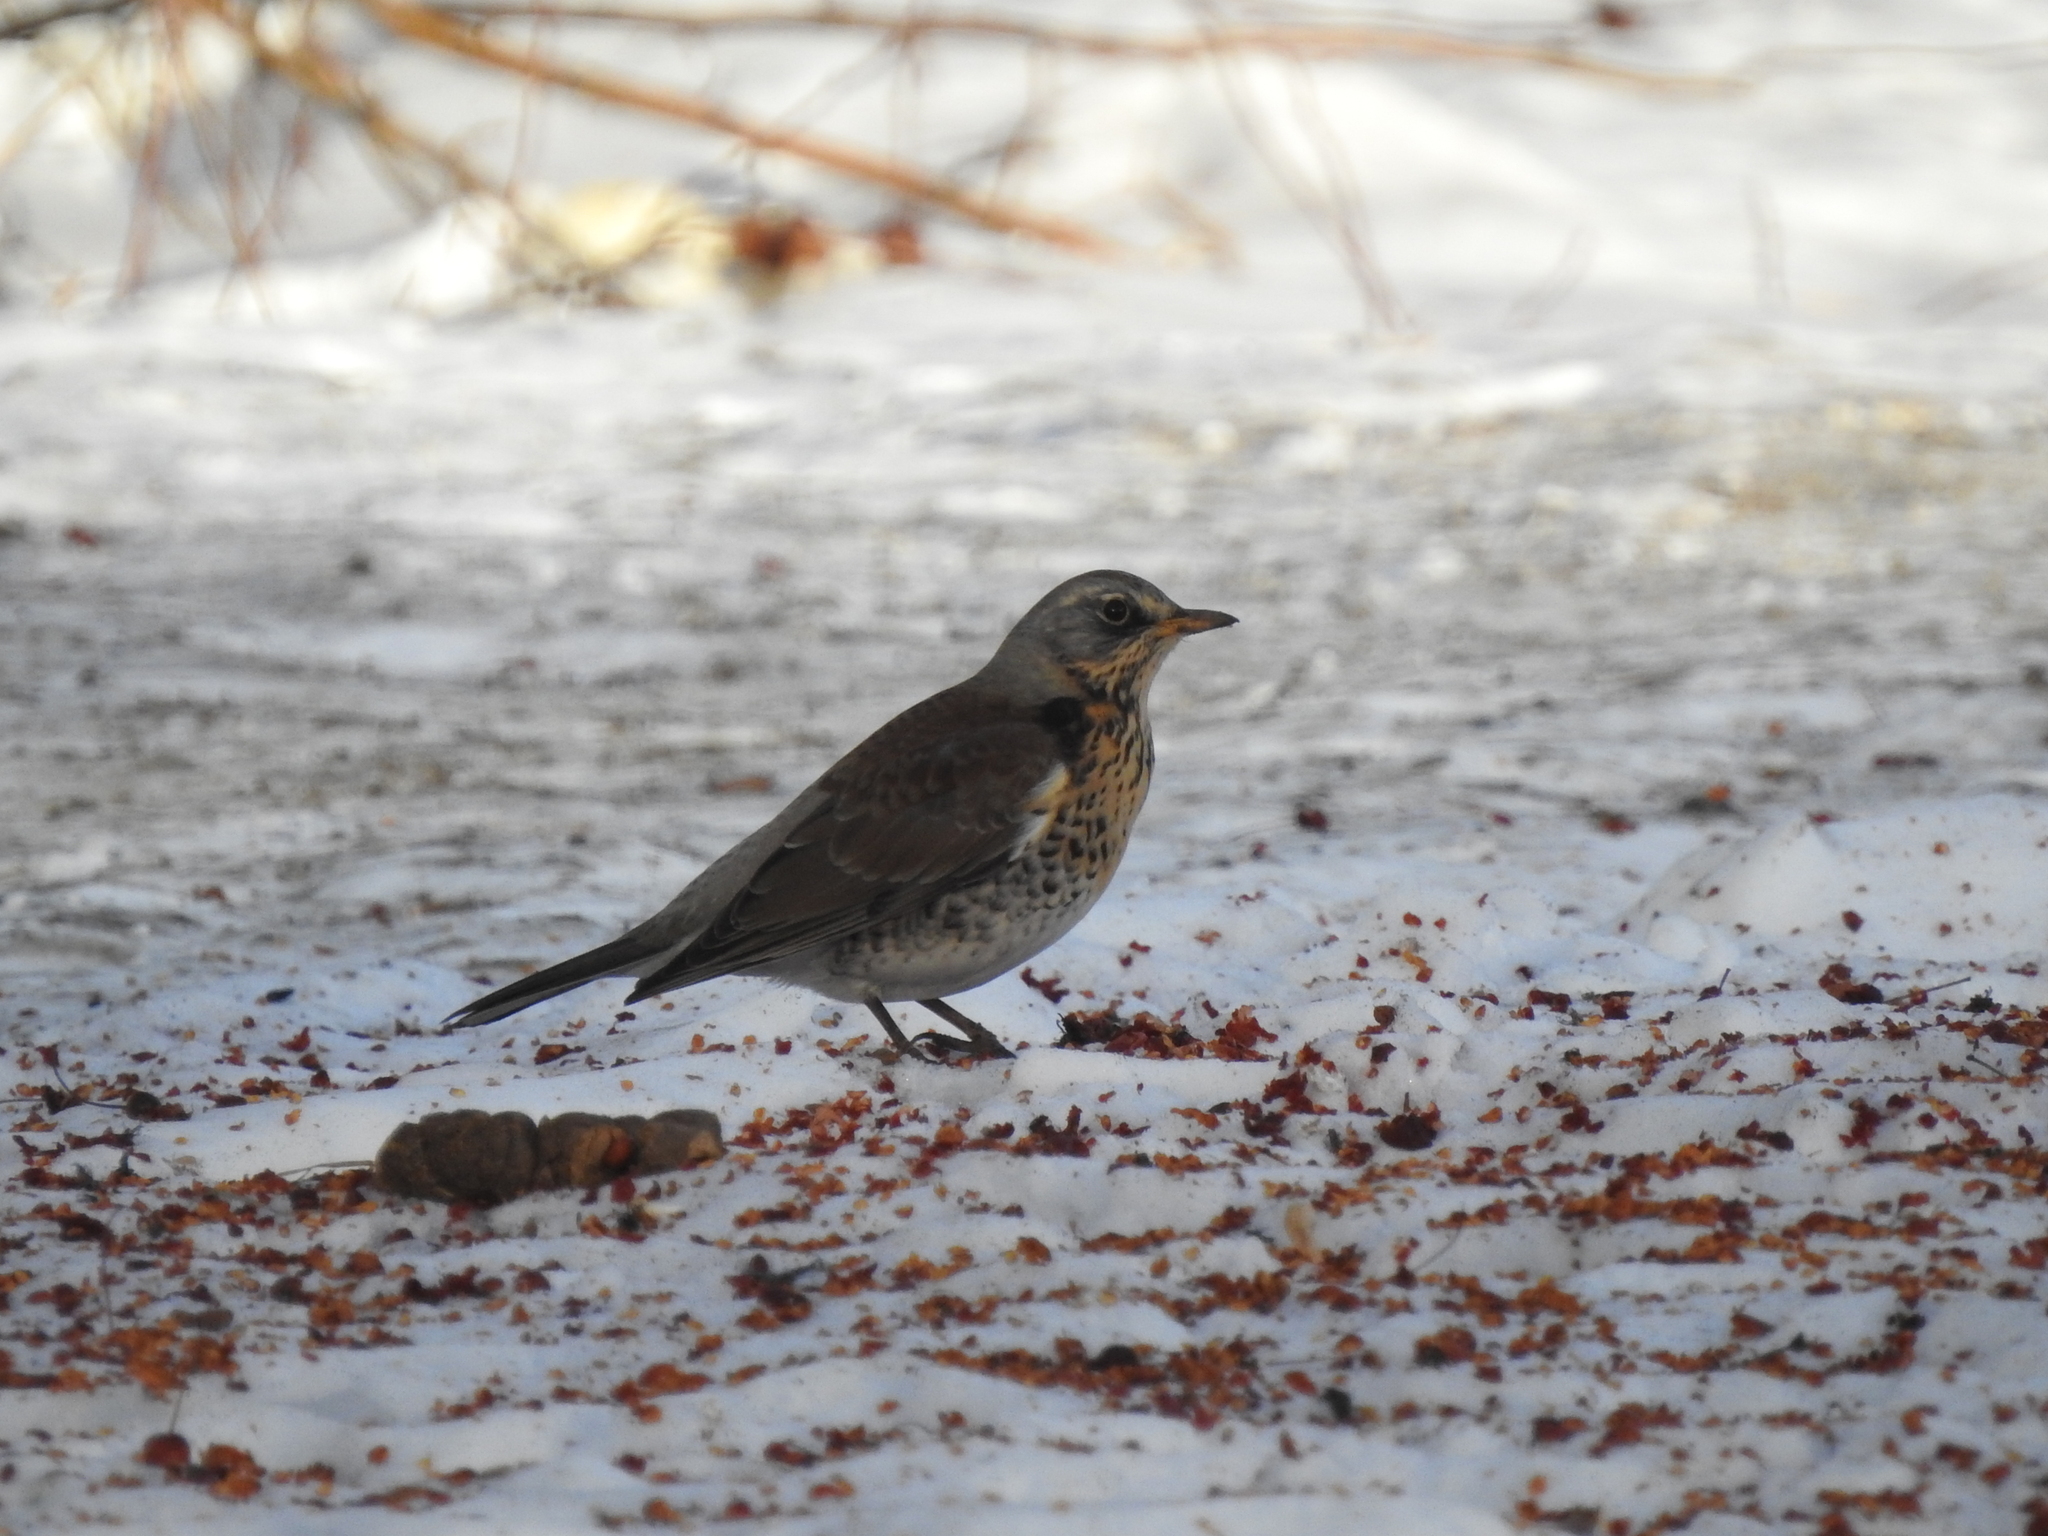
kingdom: Animalia
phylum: Chordata
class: Aves
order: Passeriformes
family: Turdidae
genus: Turdus
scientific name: Turdus pilaris
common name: Fieldfare
